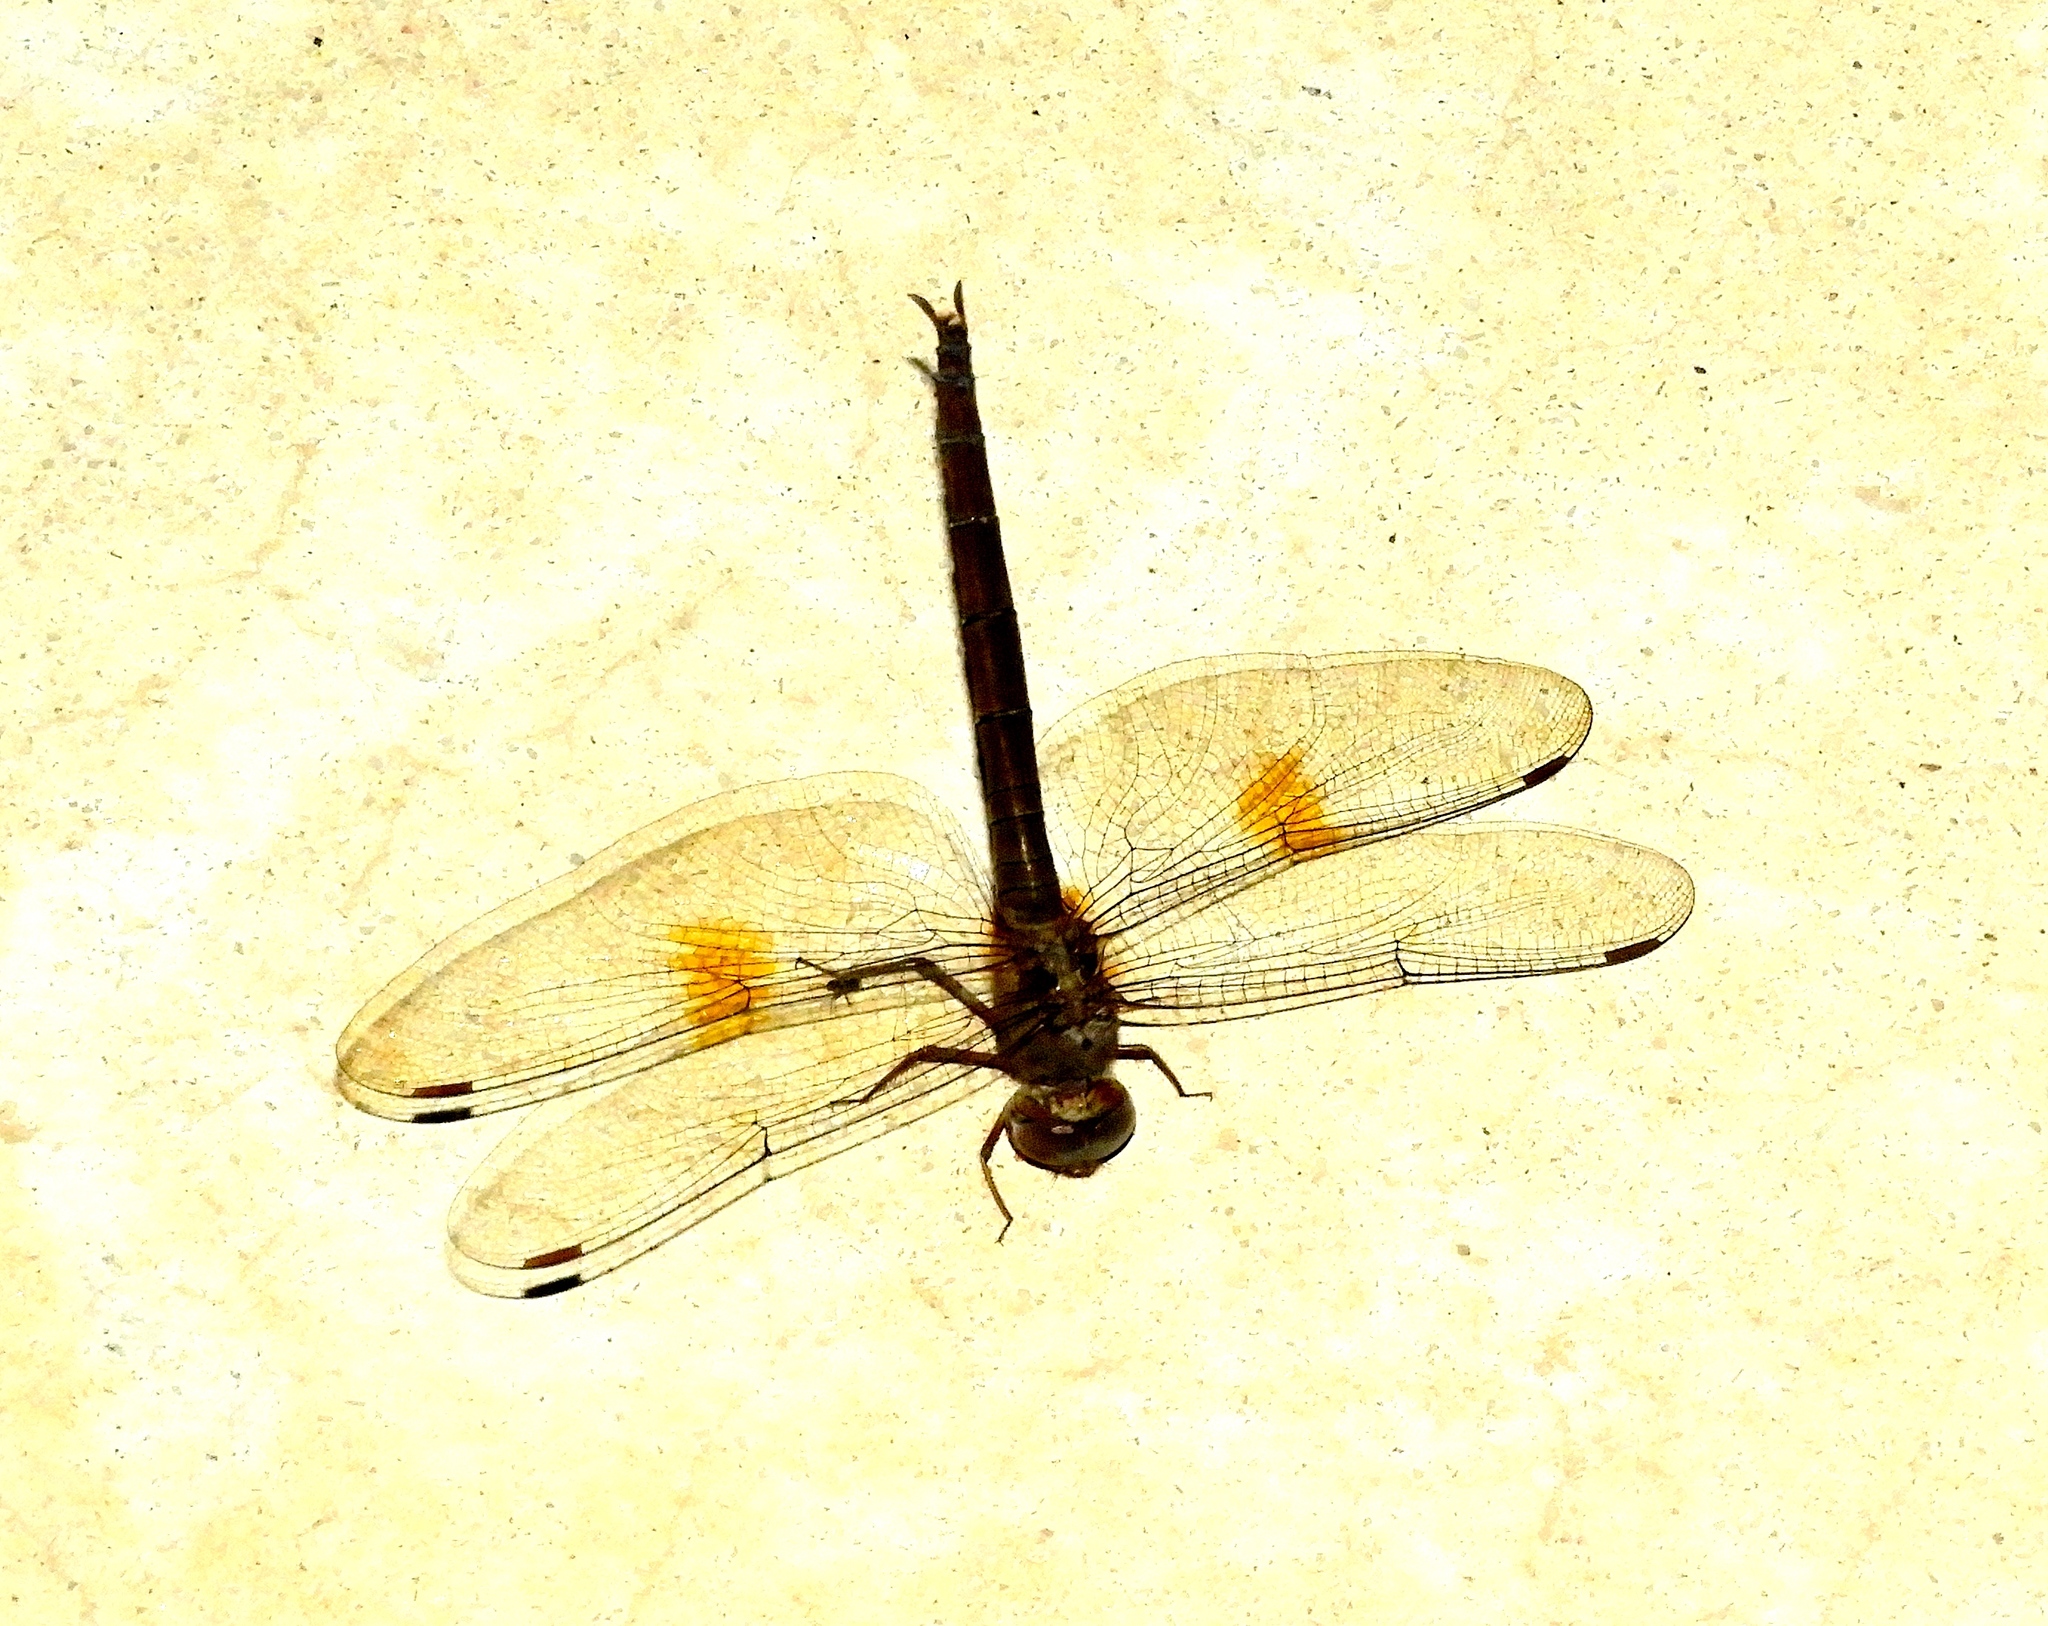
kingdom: Animalia
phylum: Arthropoda
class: Insecta
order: Odonata
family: Libellulidae
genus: Tholymis
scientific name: Tholymis citrina
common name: Evening skimmer
